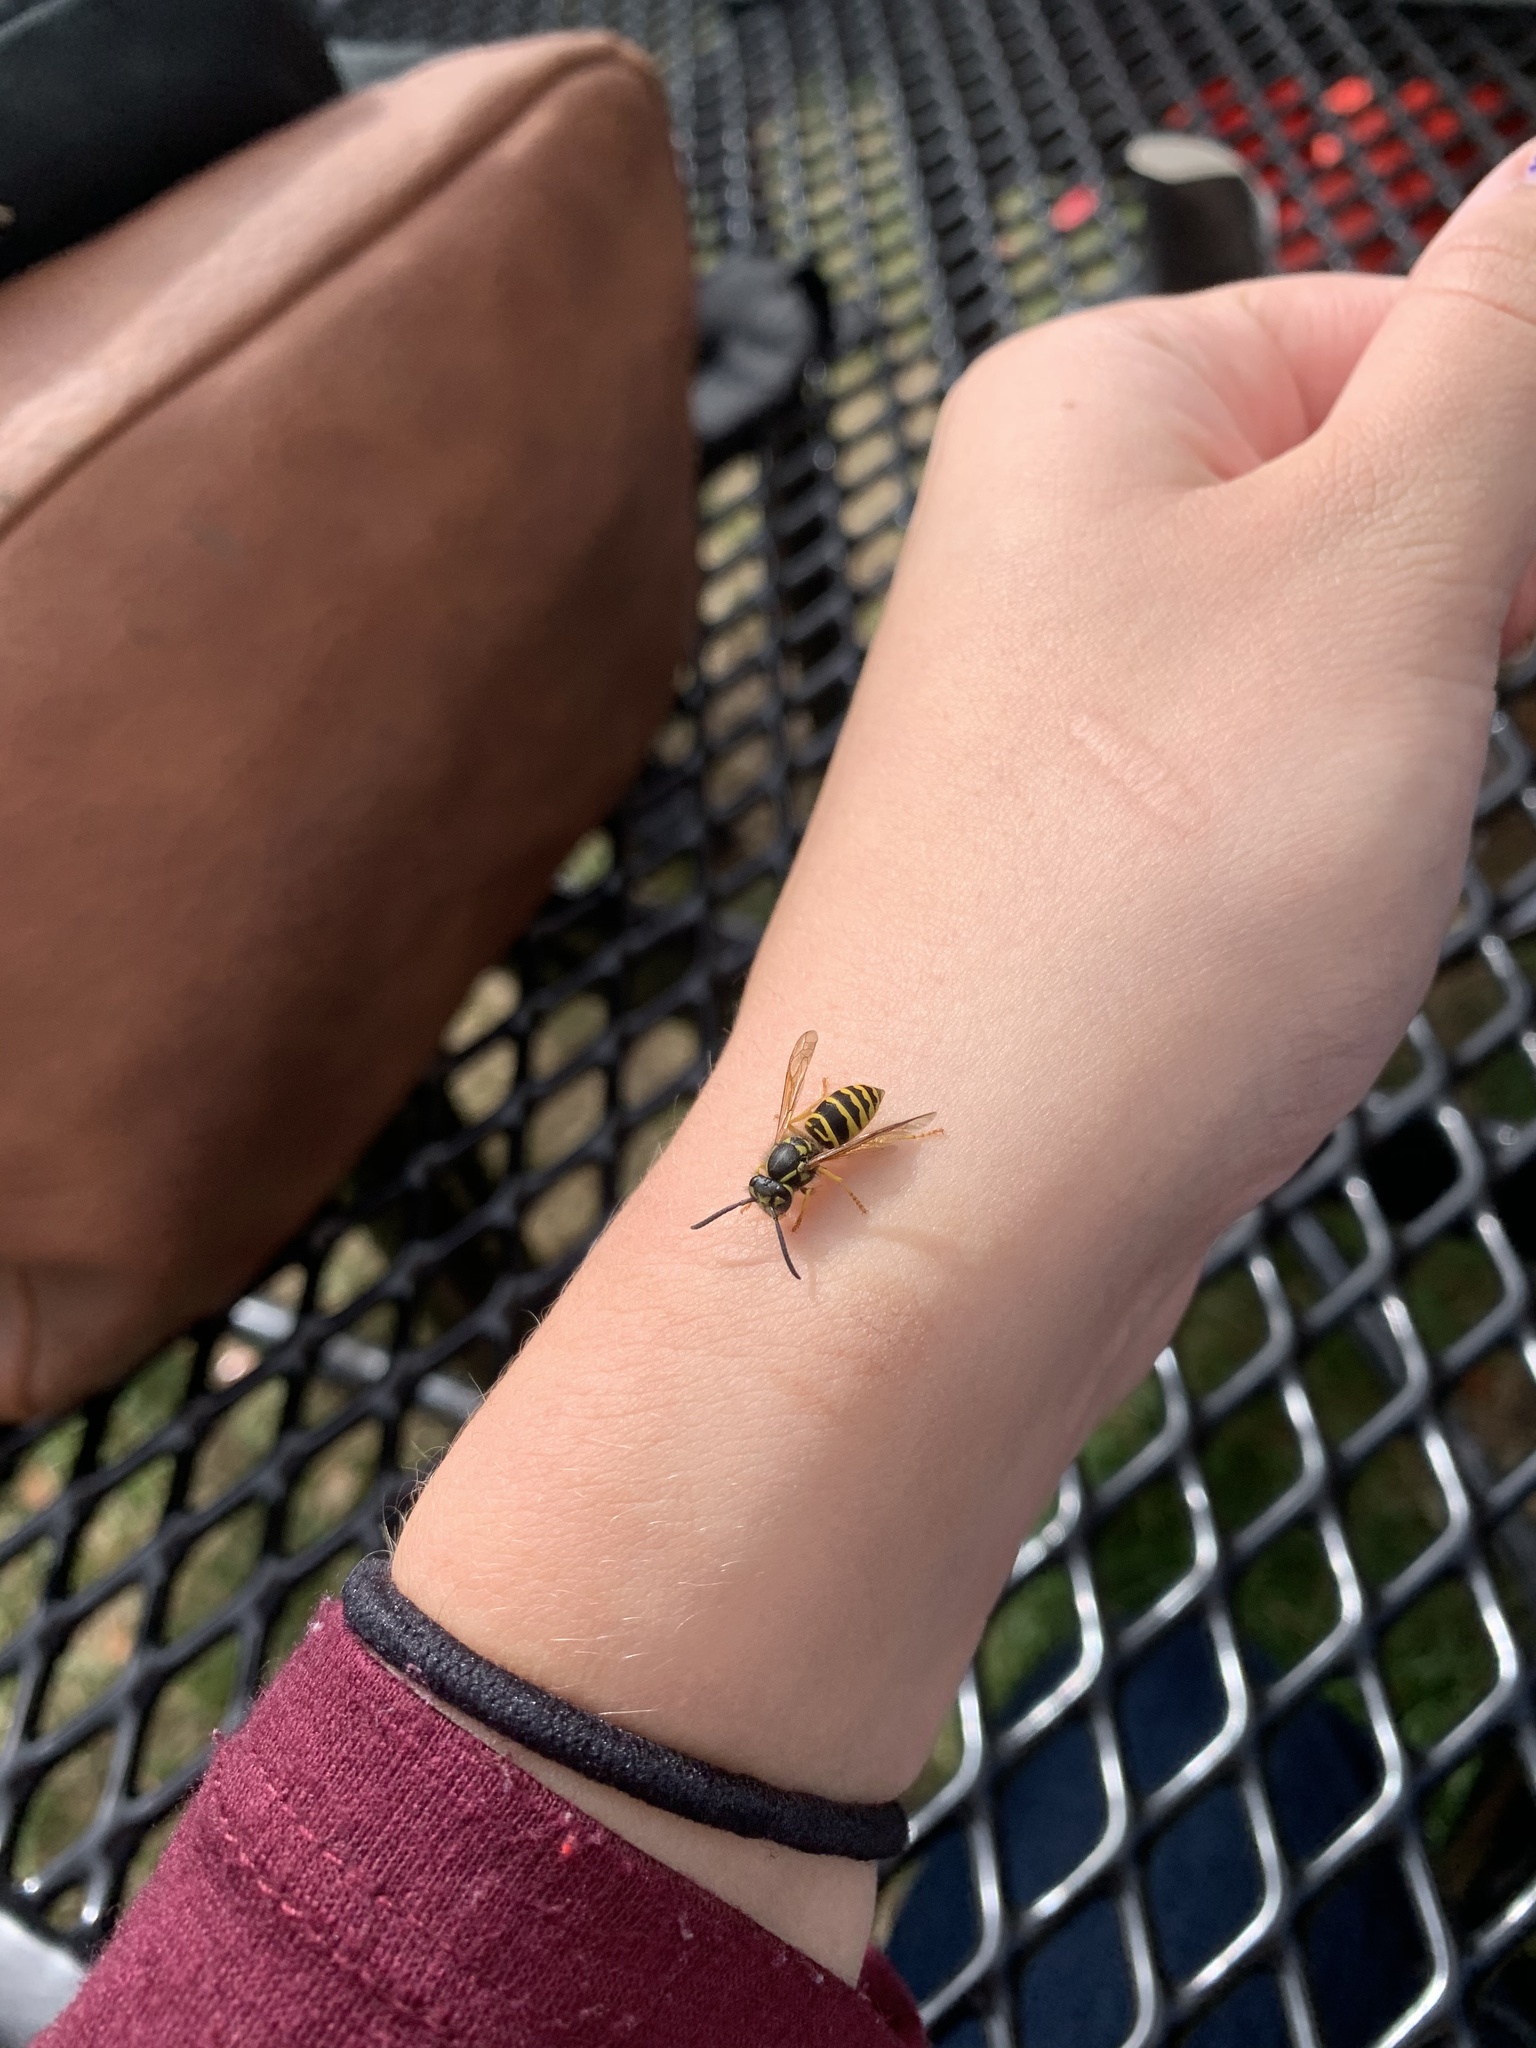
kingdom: Animalia
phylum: Arthropoda
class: Insecta
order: Hymenoptera
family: Vespidae
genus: Vespula
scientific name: Vespula maculifrons
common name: Eastern yellowjacket
